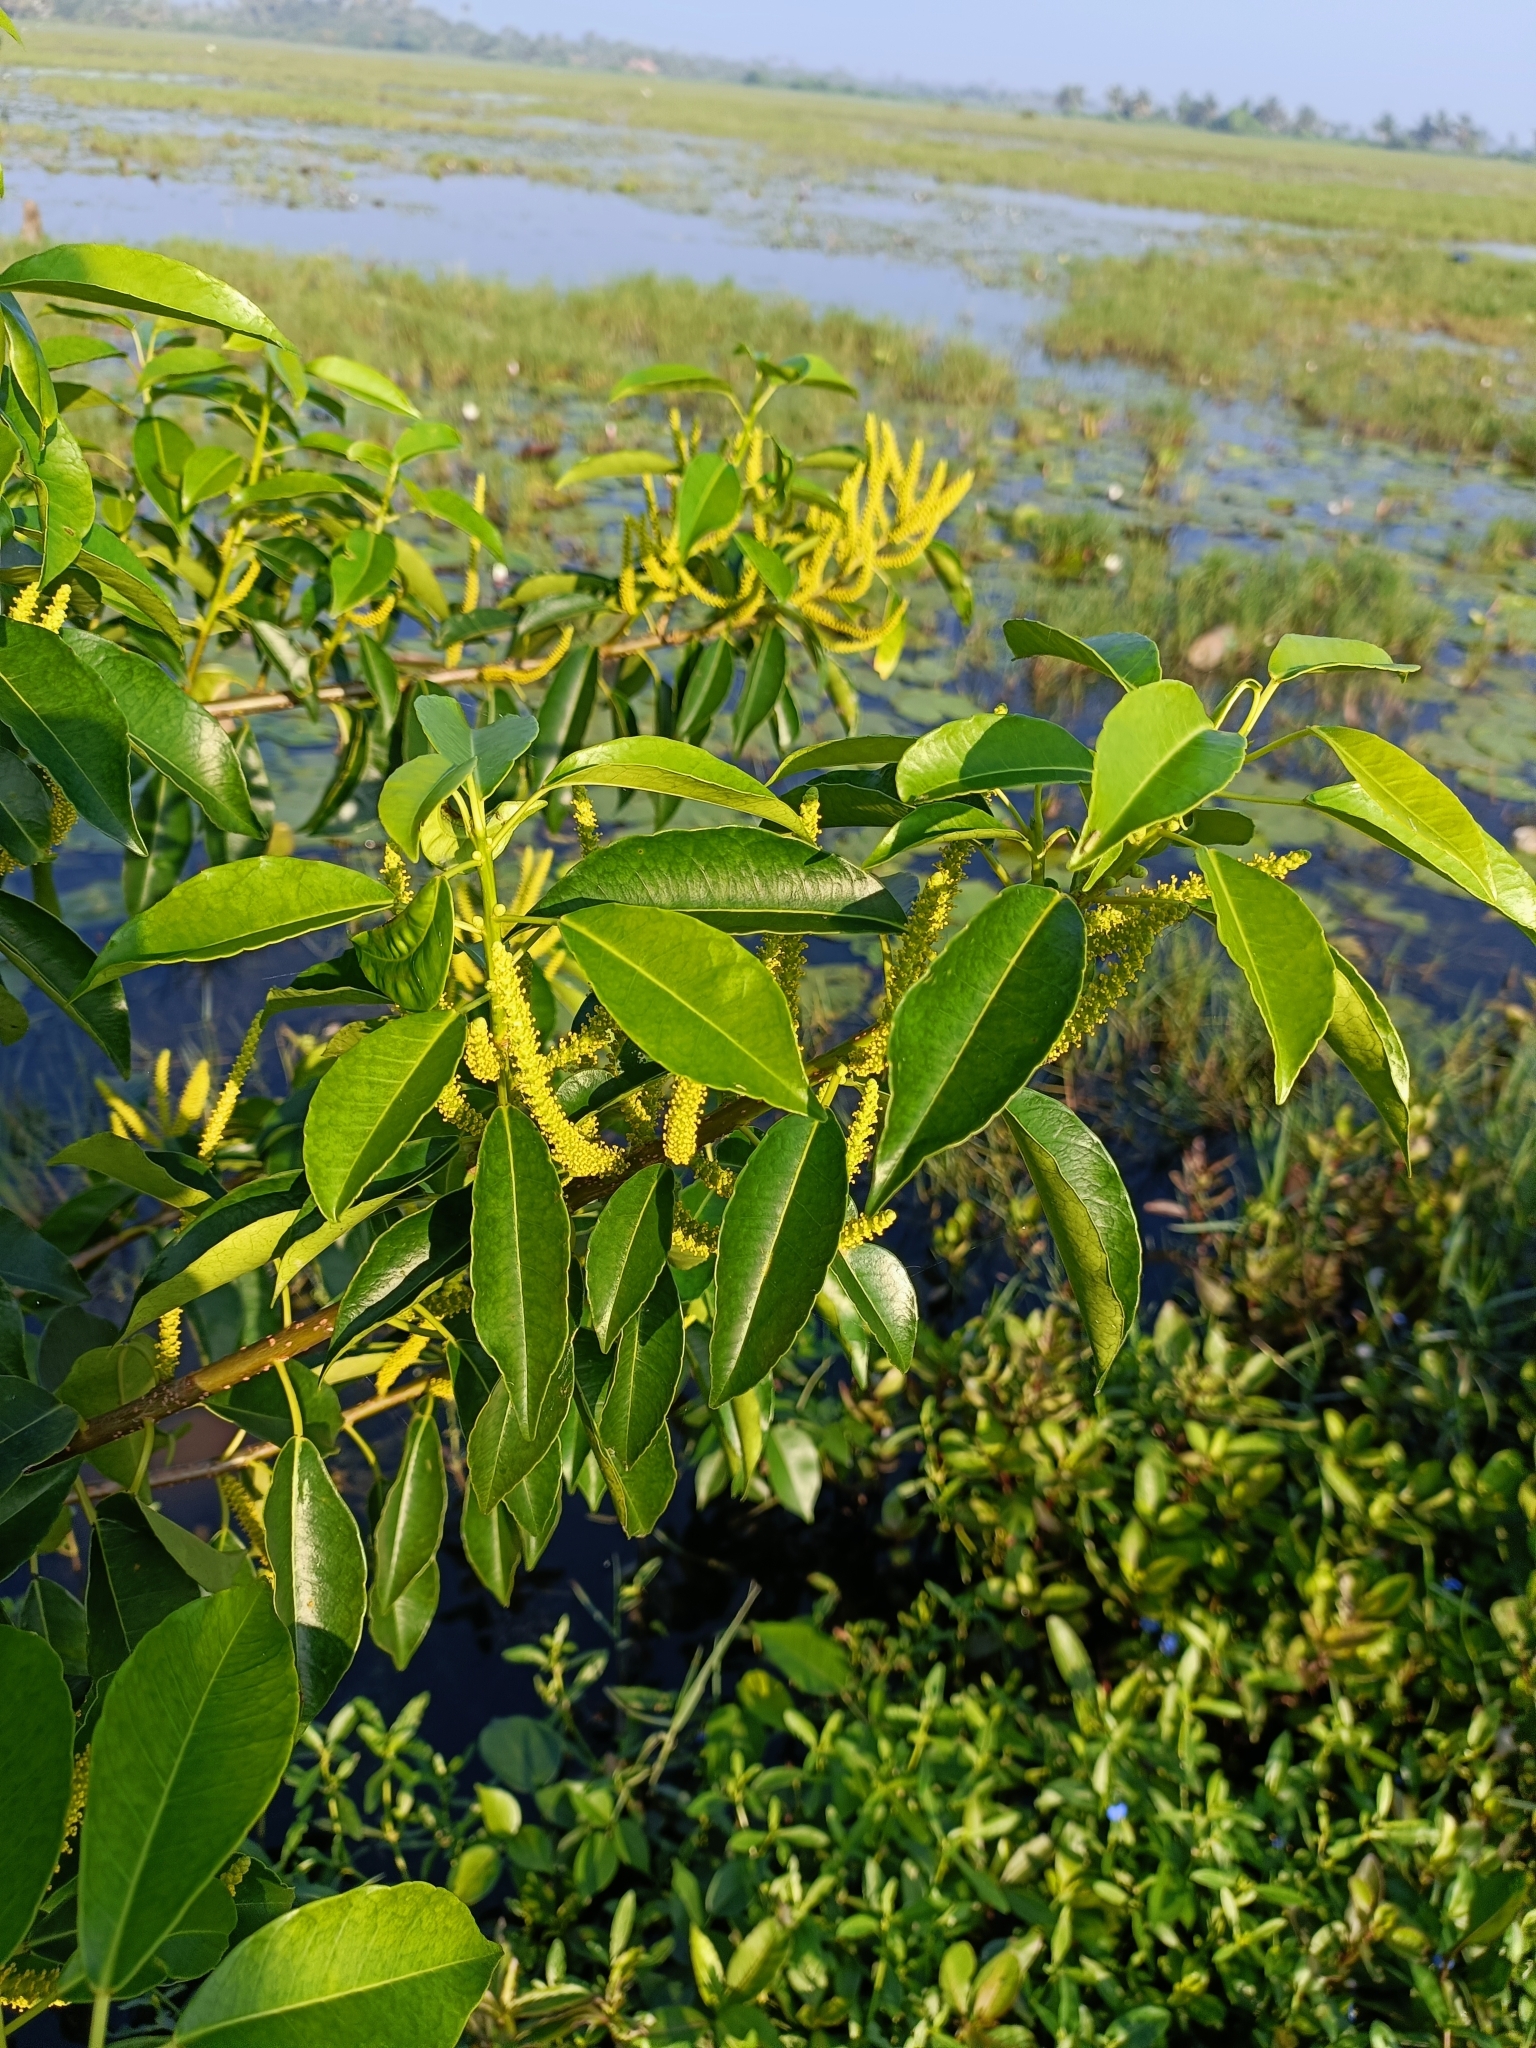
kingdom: Plantae
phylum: Tracheophyta
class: Magnoliopsida
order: Malpighiales
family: Euphorbiaceae
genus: Excoecaria
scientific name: Excoecaria agallocha
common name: River poisontree
